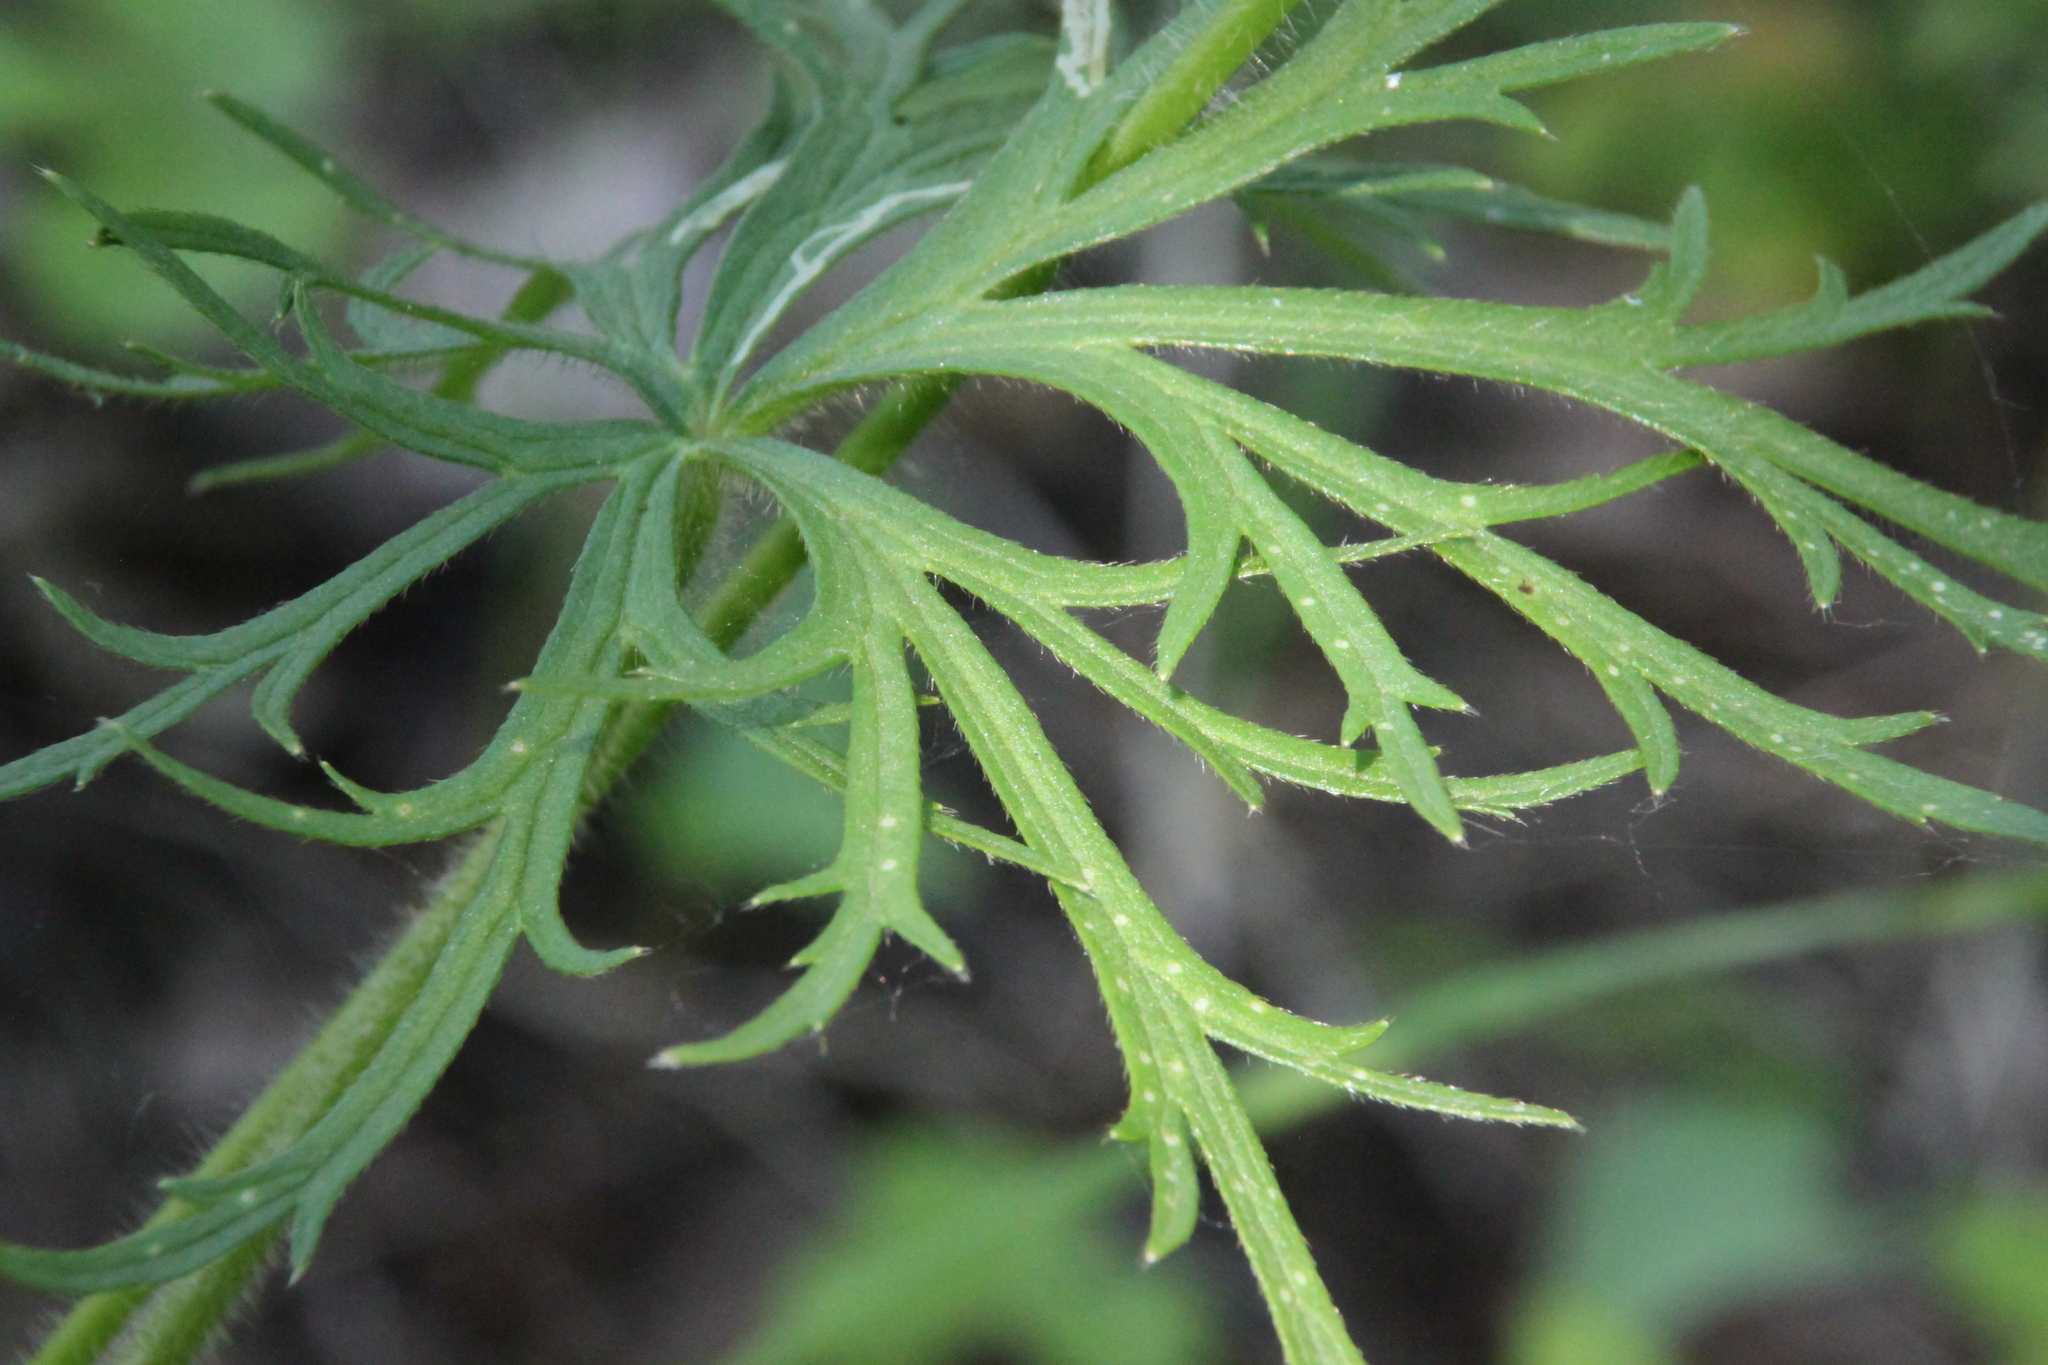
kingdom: Plantae
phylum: Tracheophyta
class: Magnoliopsida
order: Ranunculales
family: Ranunculaceae
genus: Ranunculus
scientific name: Ranunculus polyanthemos
